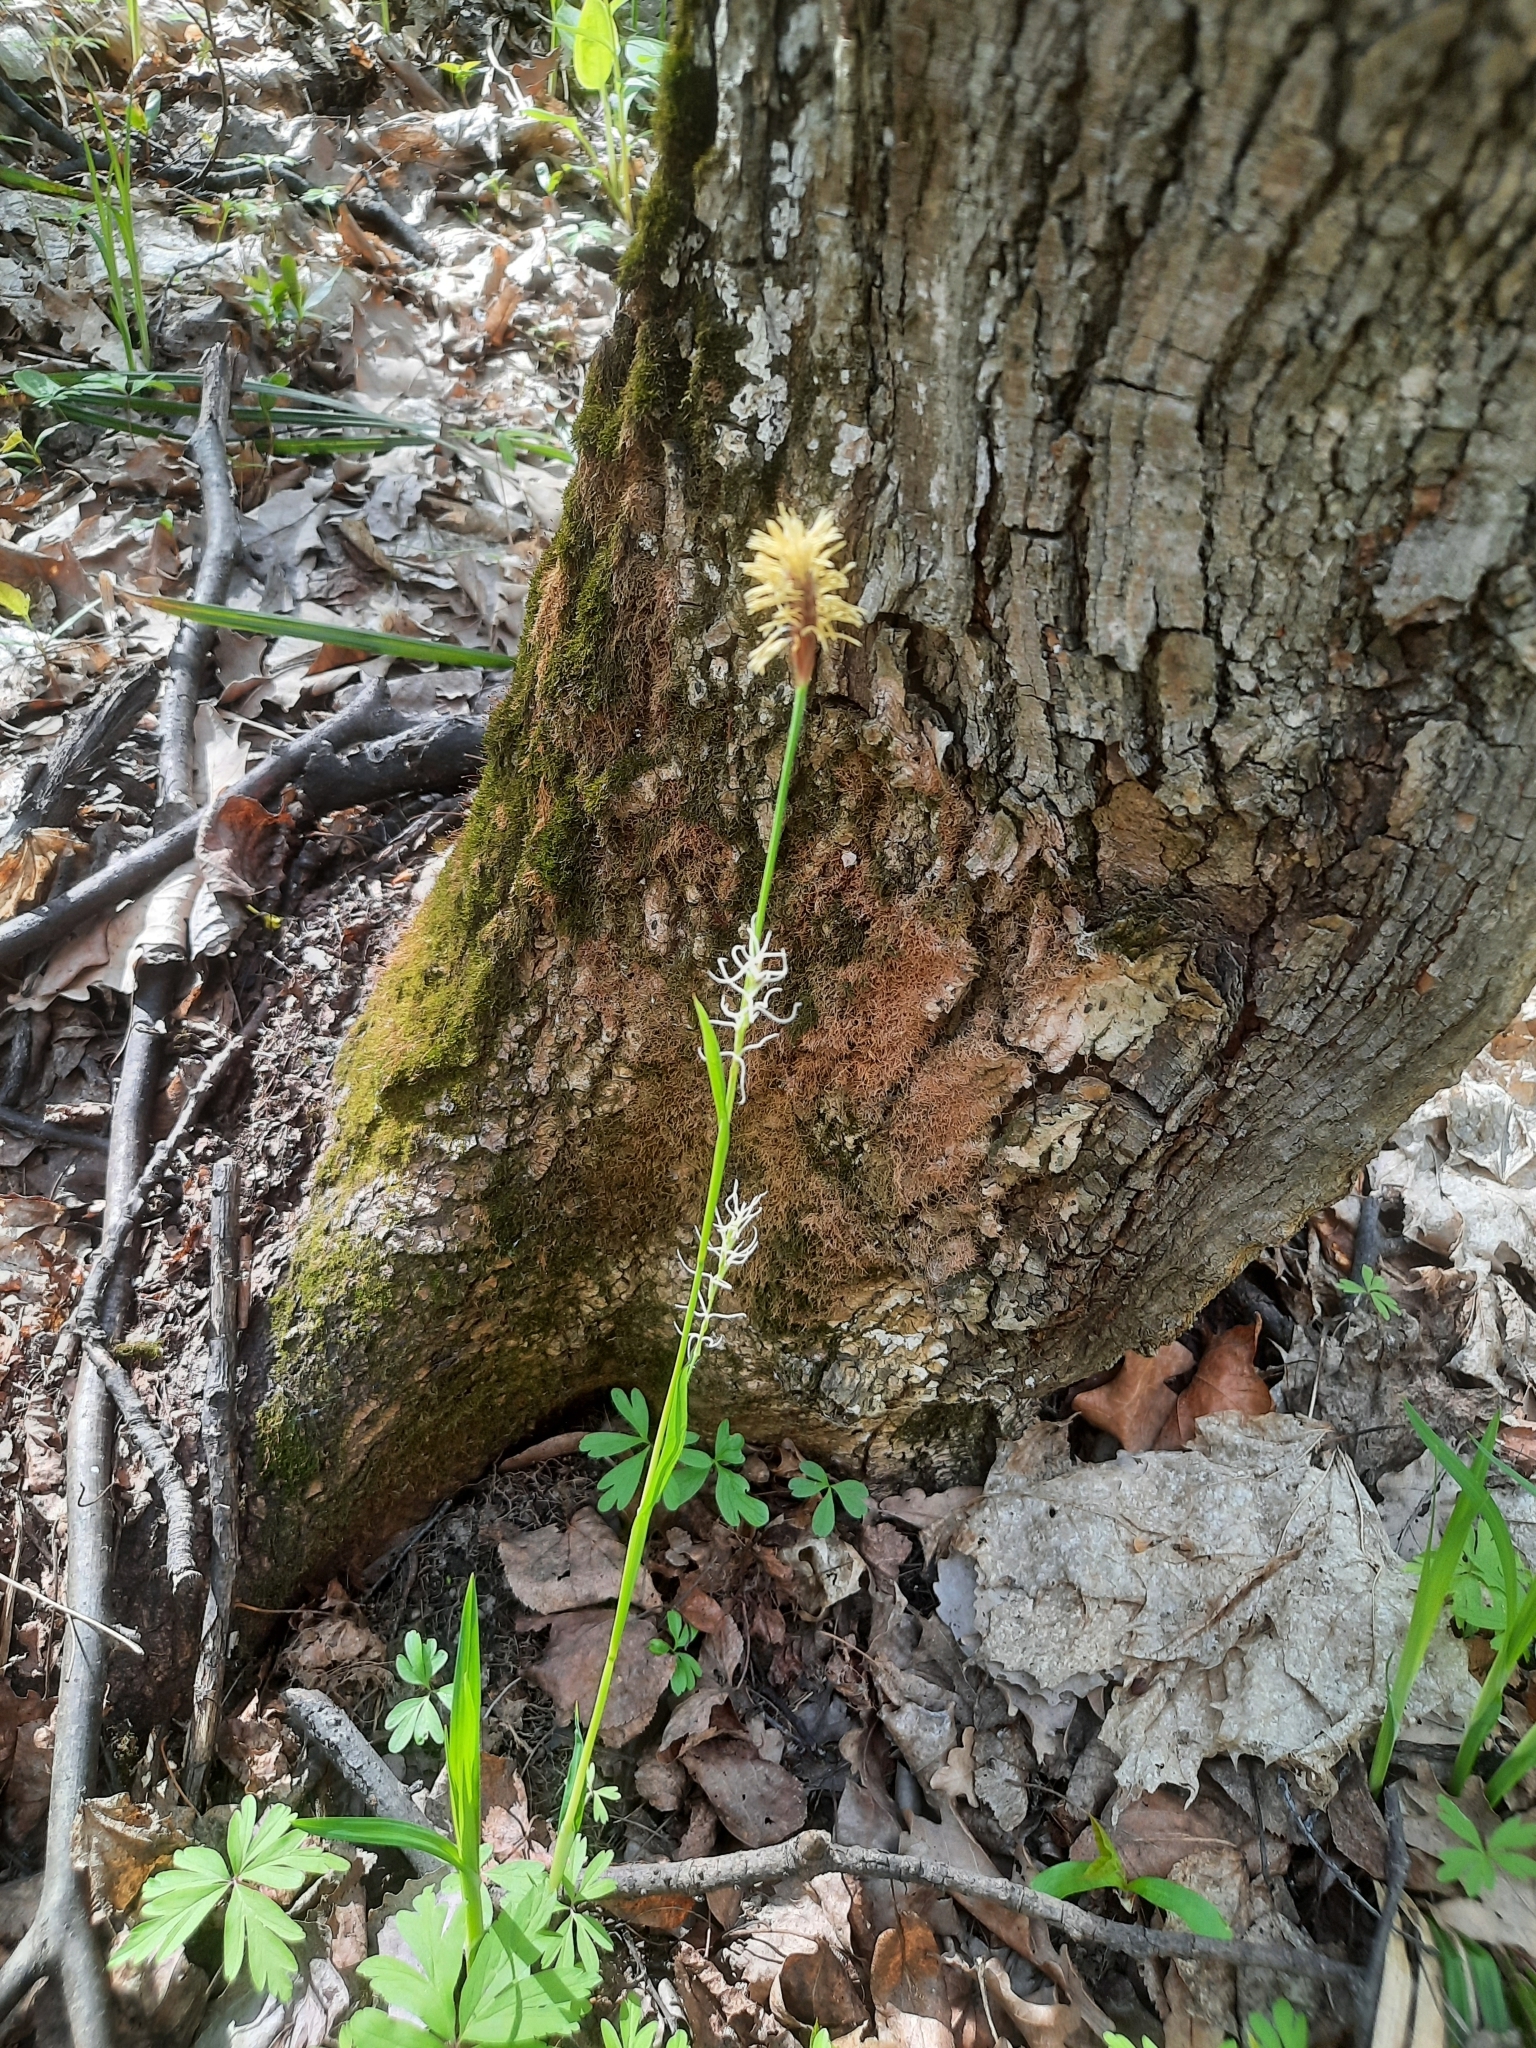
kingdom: Plantae
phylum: Tracheophyta
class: Liliopsida
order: Poales
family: Cyperaceae
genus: Carex
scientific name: Carex pilosa
